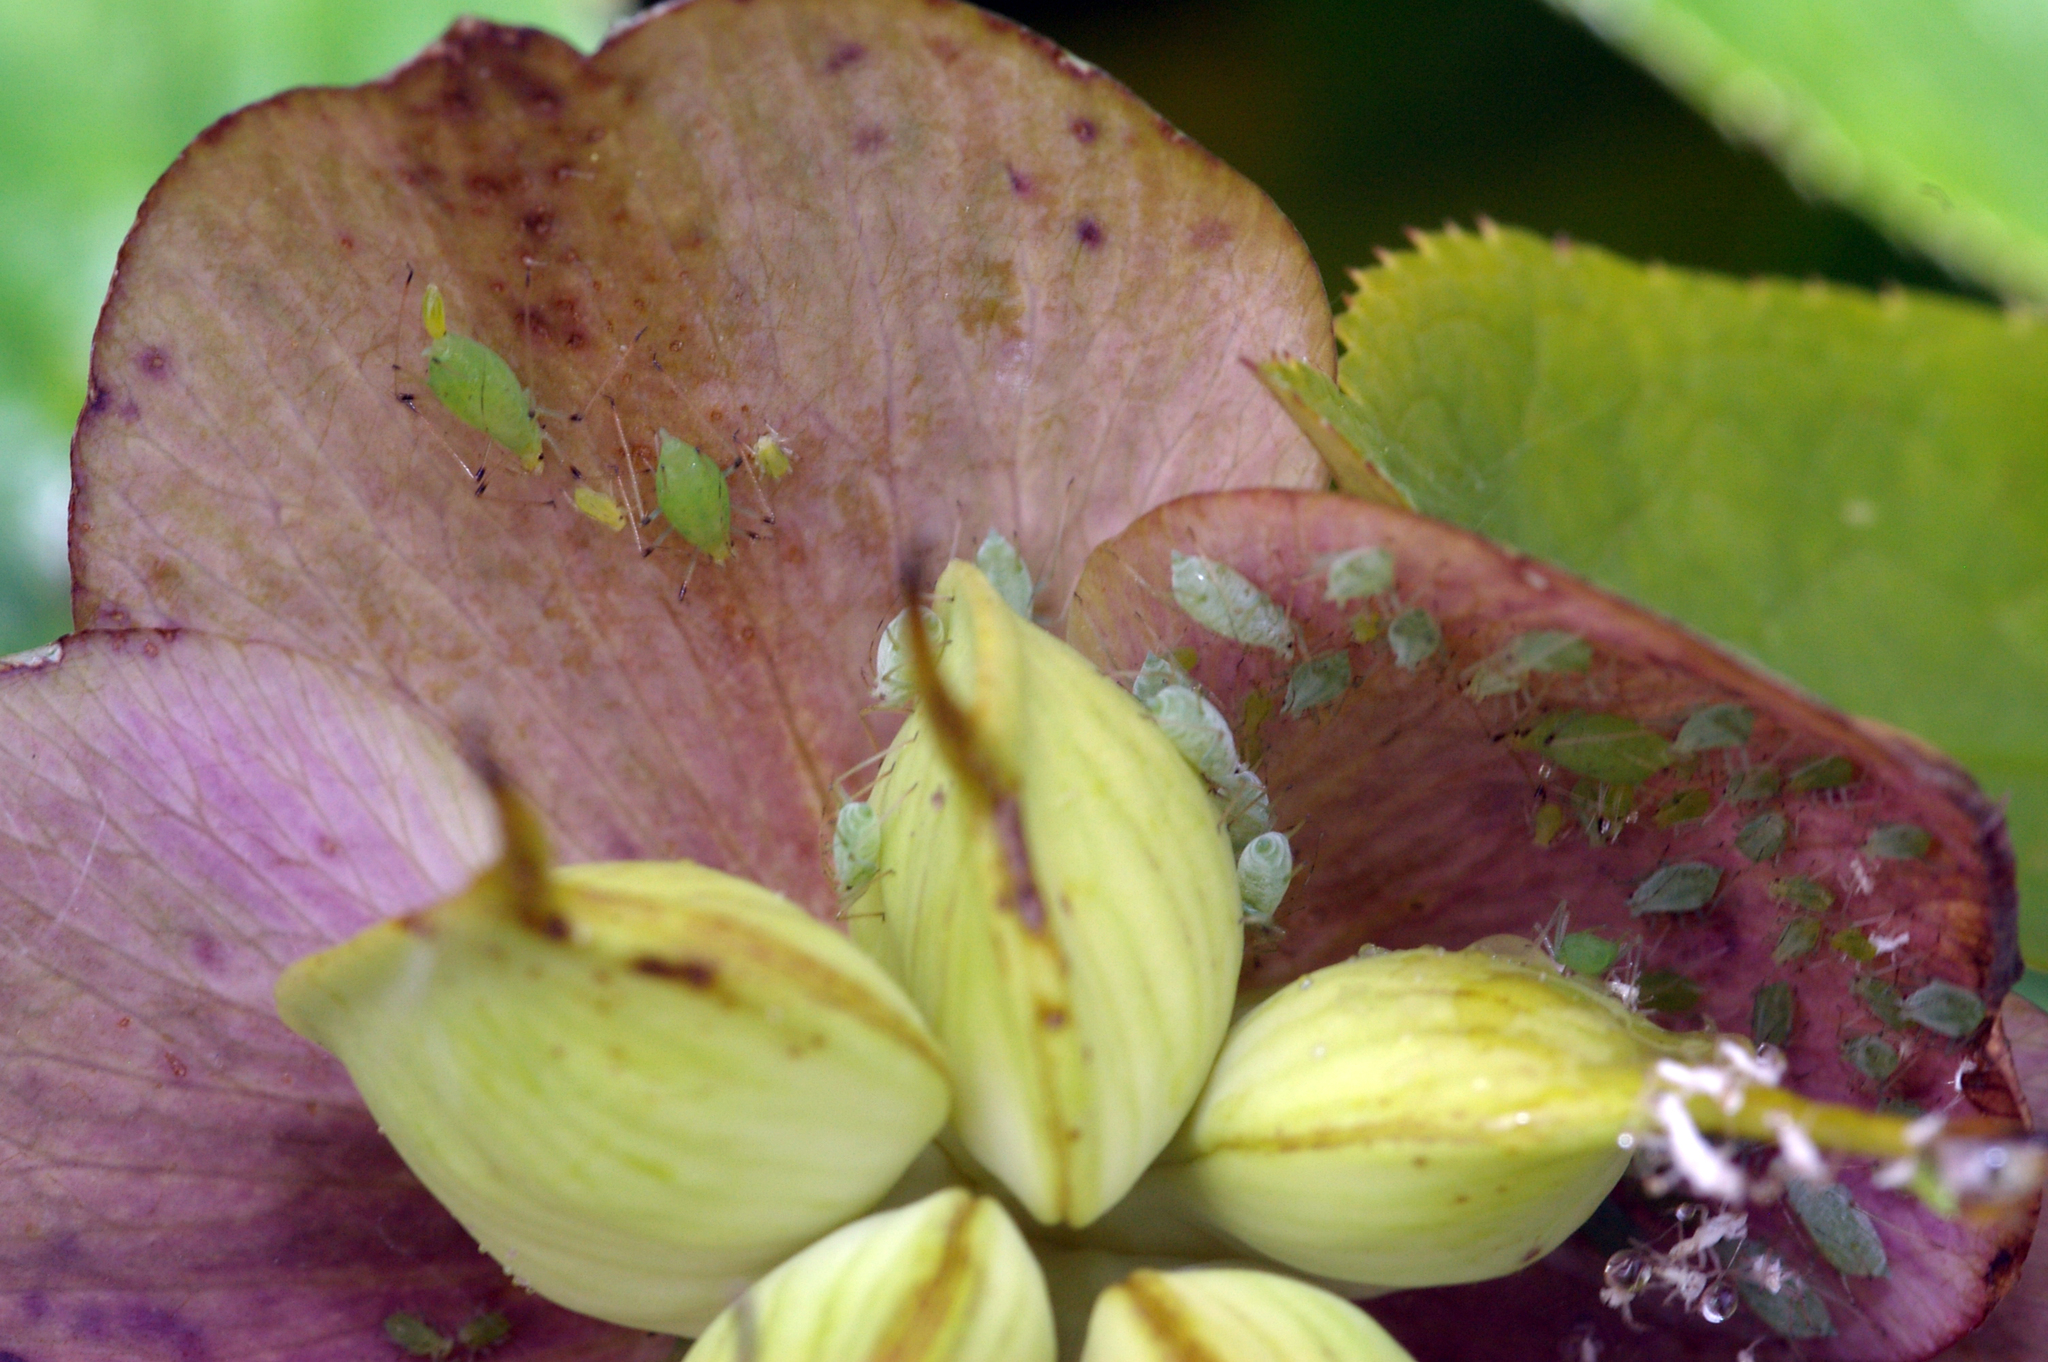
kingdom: Animalia
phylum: Arthropoda
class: Insecta
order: Hemiptera
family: Aphididae
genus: Macrosiphum
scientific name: Macrosiphum hellebori
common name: Aphid
